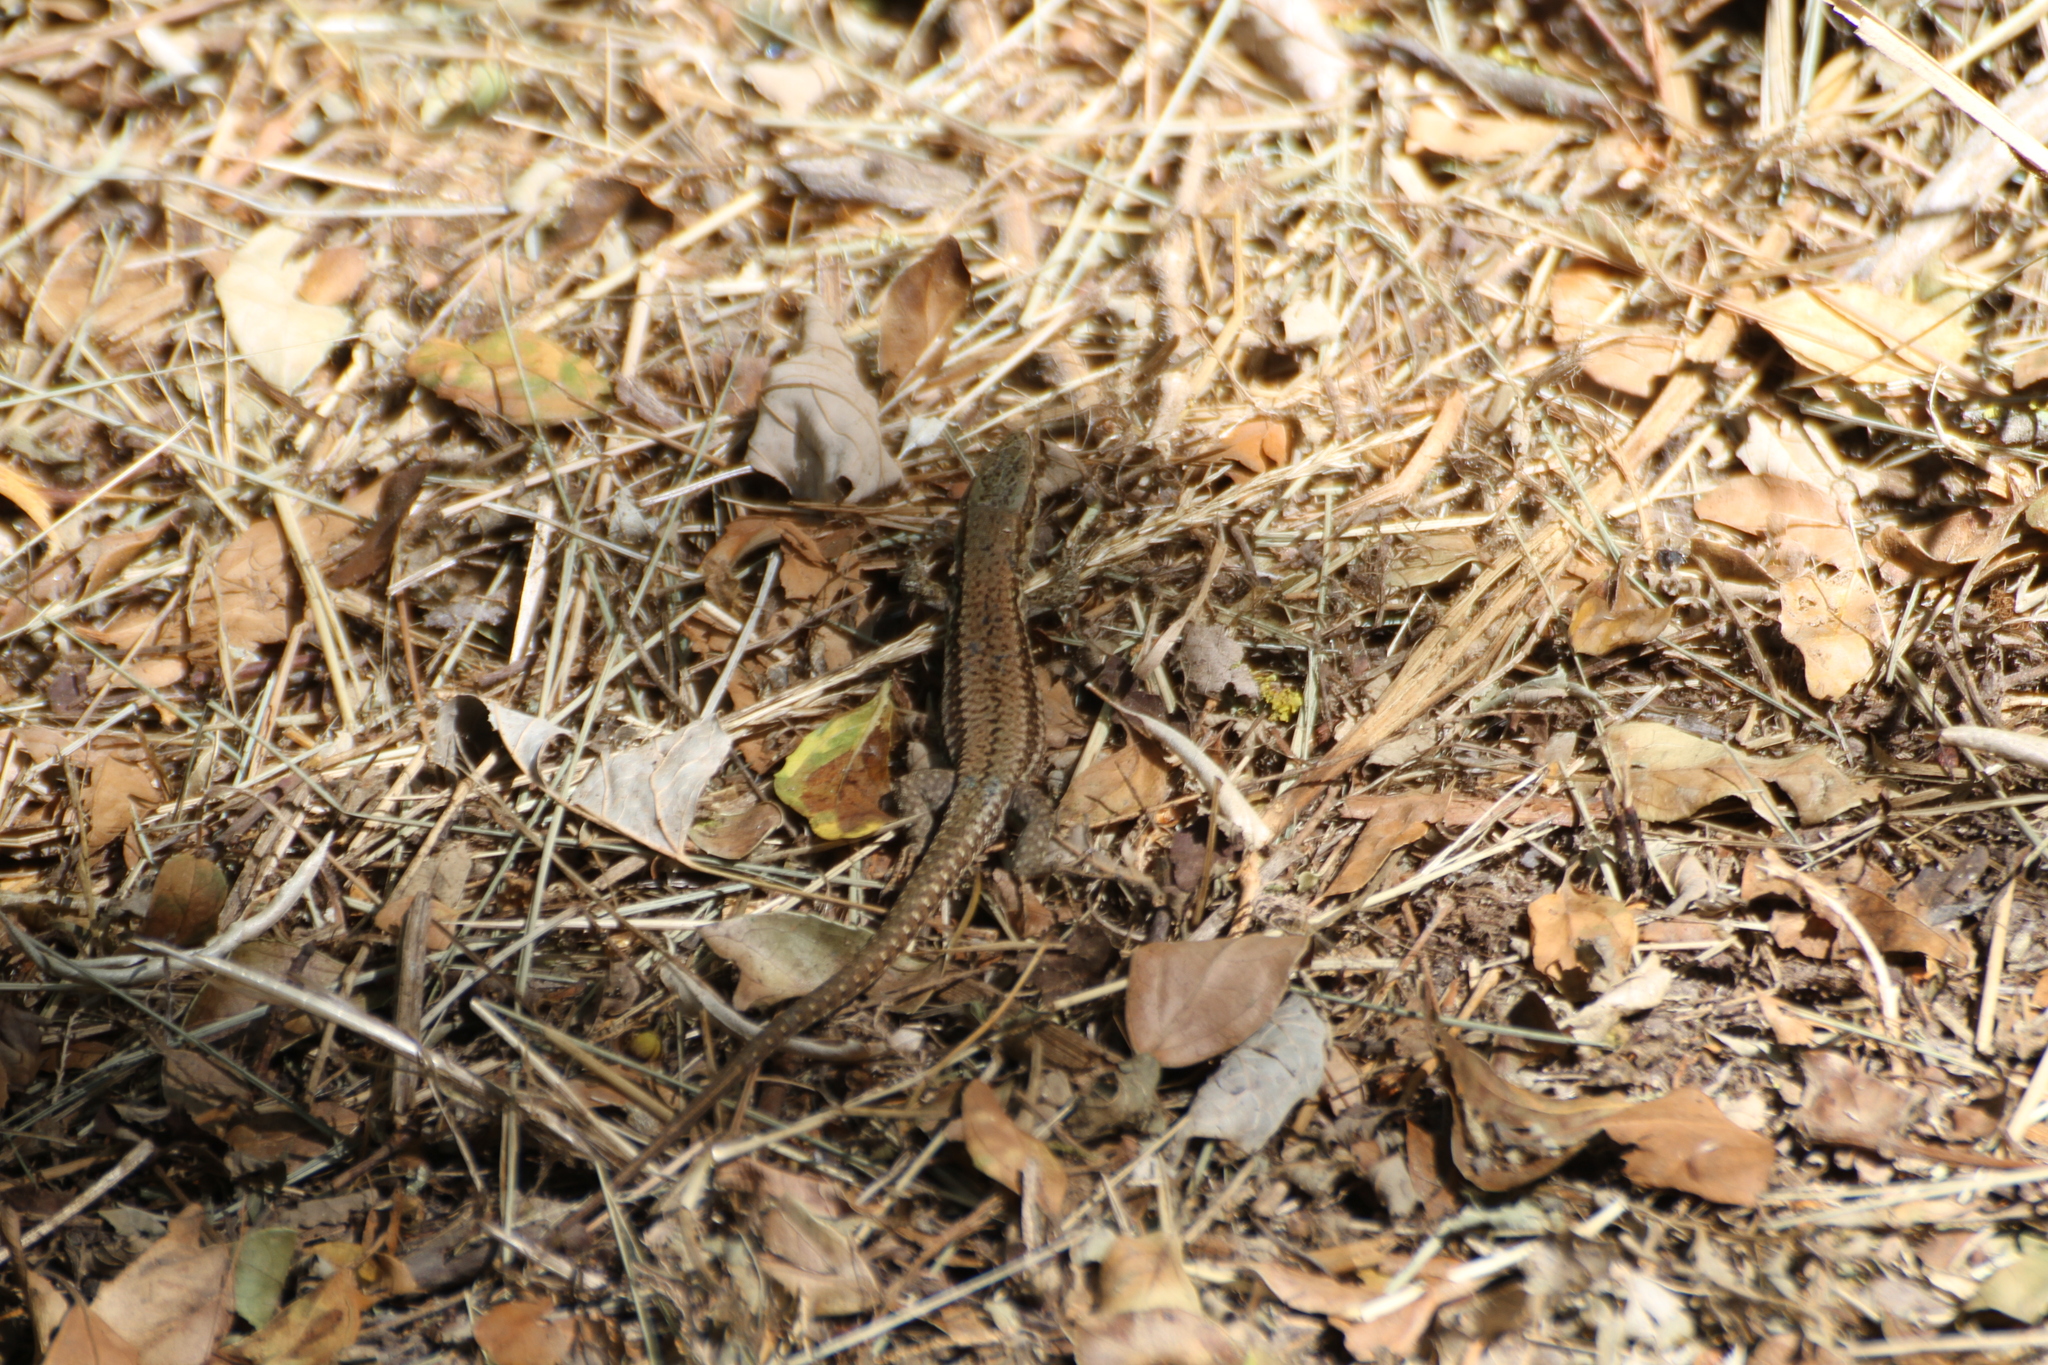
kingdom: Animalia
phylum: Chordata
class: Squamata
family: Lacertidae
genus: Podarcis
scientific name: Podarcis muralis
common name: Common wall lizard
